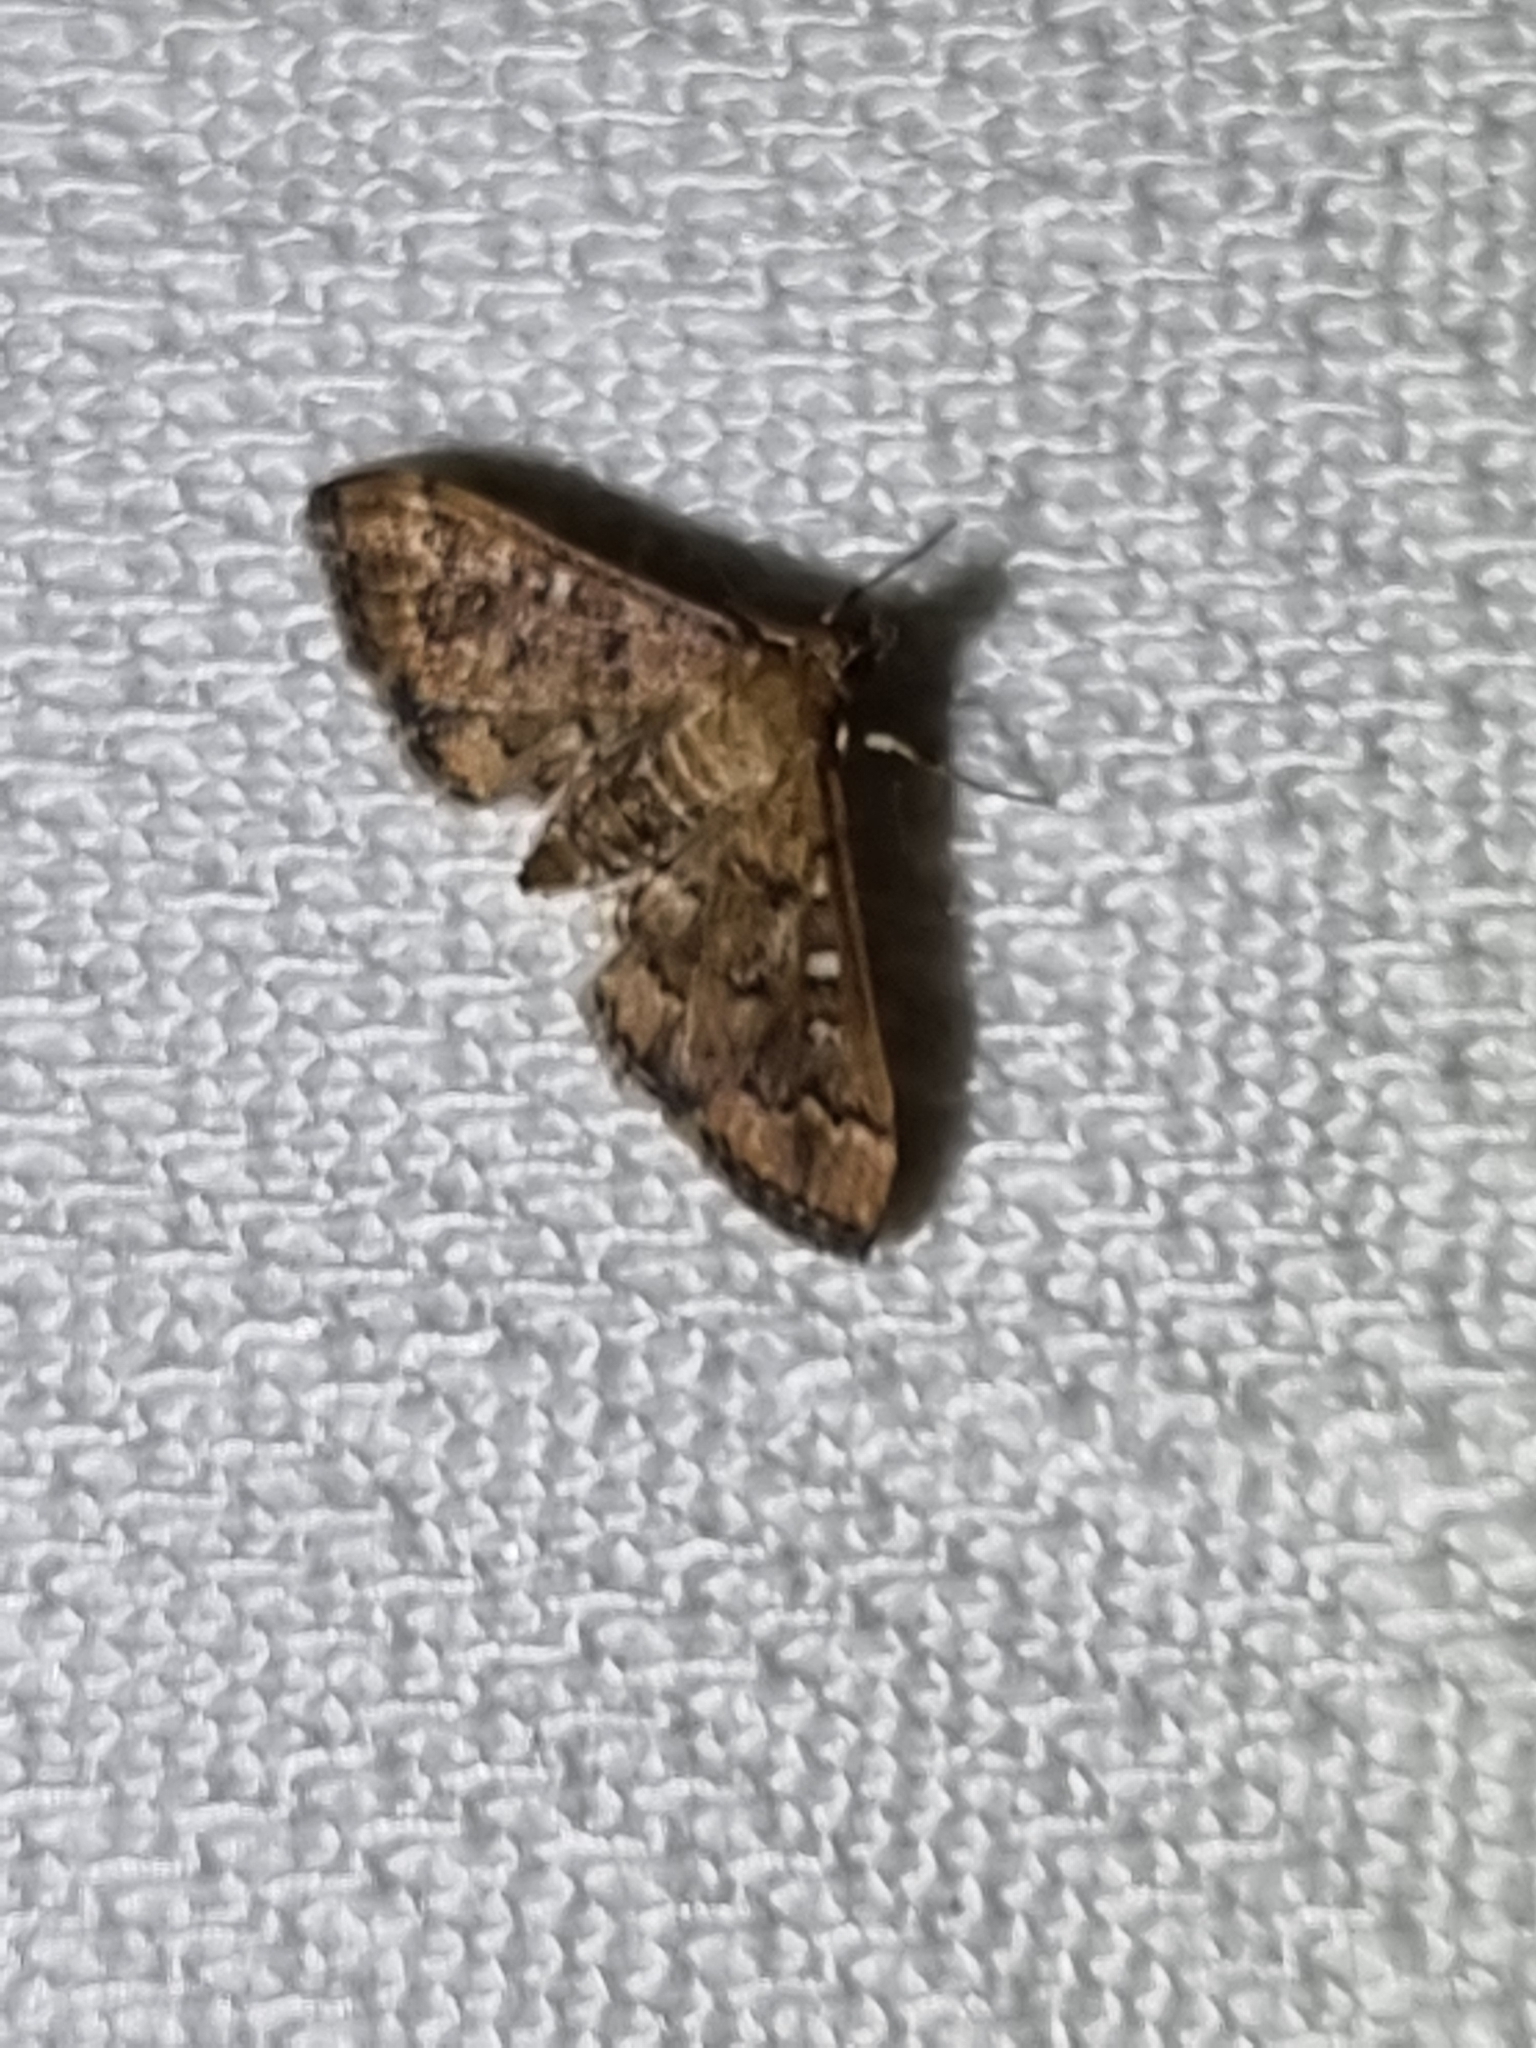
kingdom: Animalia
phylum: Arthropoda
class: Insecta
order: Lepidoptera
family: Crambidae
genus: Nacoleia
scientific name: Nacoleia rhoeoalis
